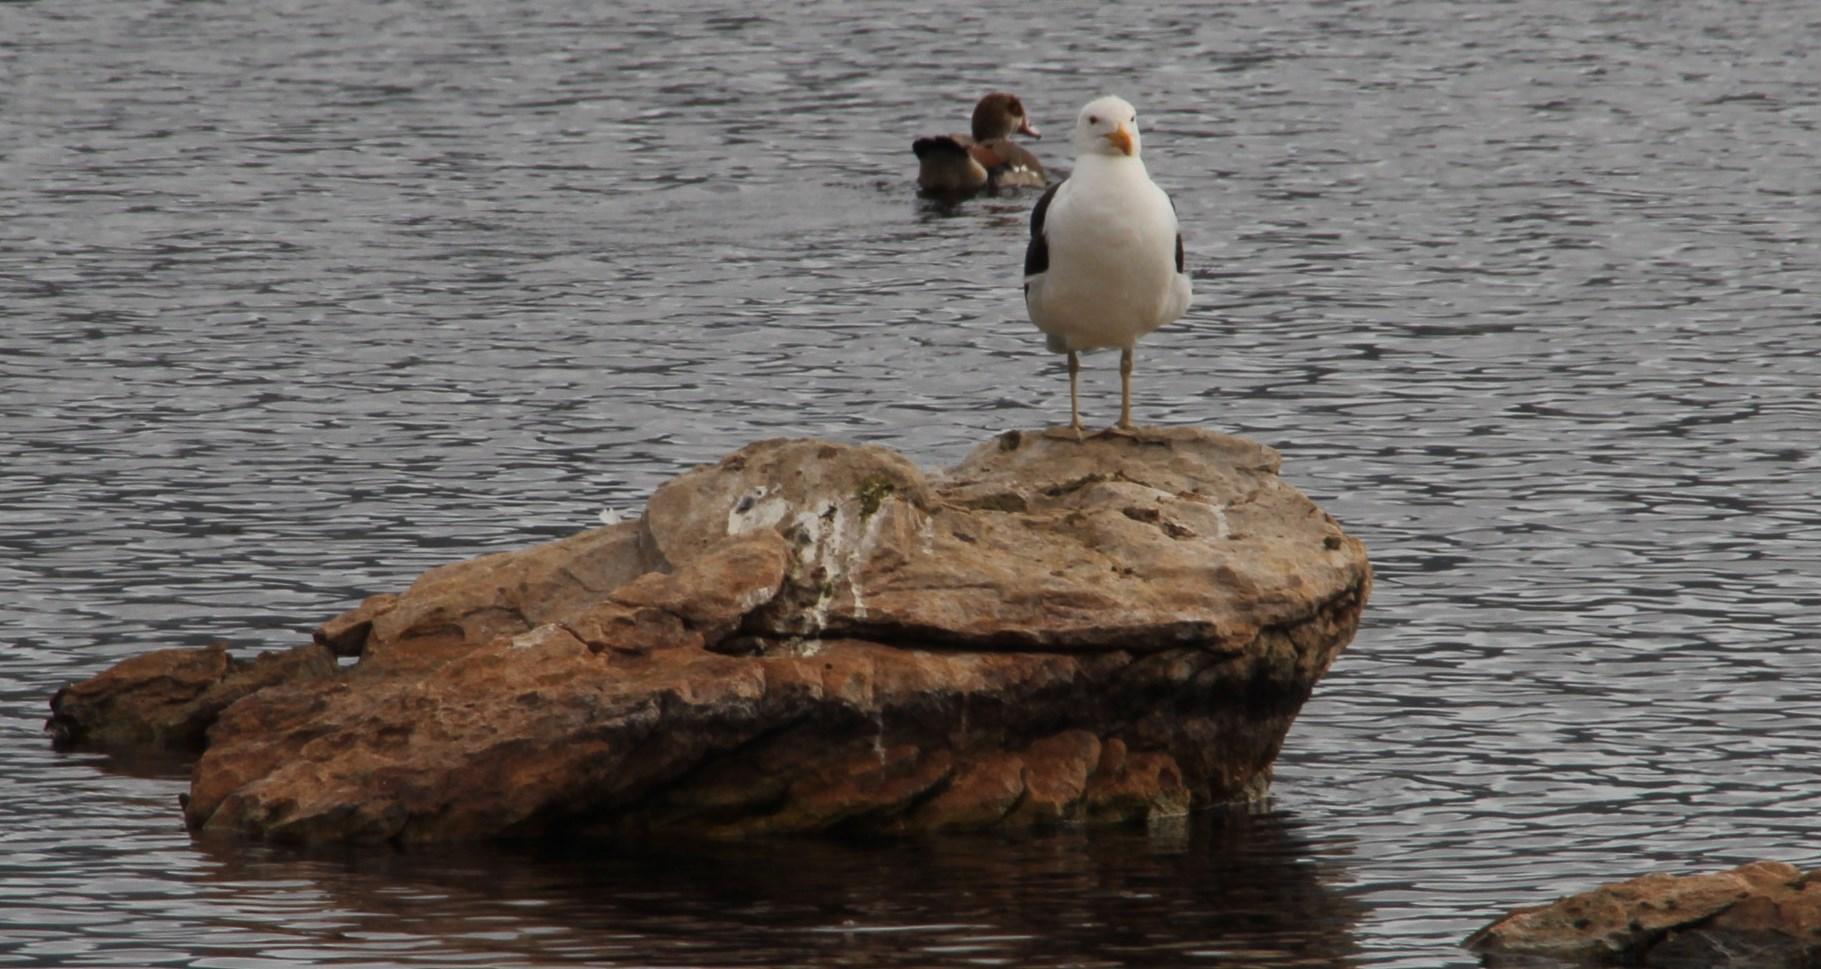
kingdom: Animalia
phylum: Chordata
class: Aves
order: Charadriiformes
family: Laridae
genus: Larus
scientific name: Larus dominicanus
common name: Kelp gull
